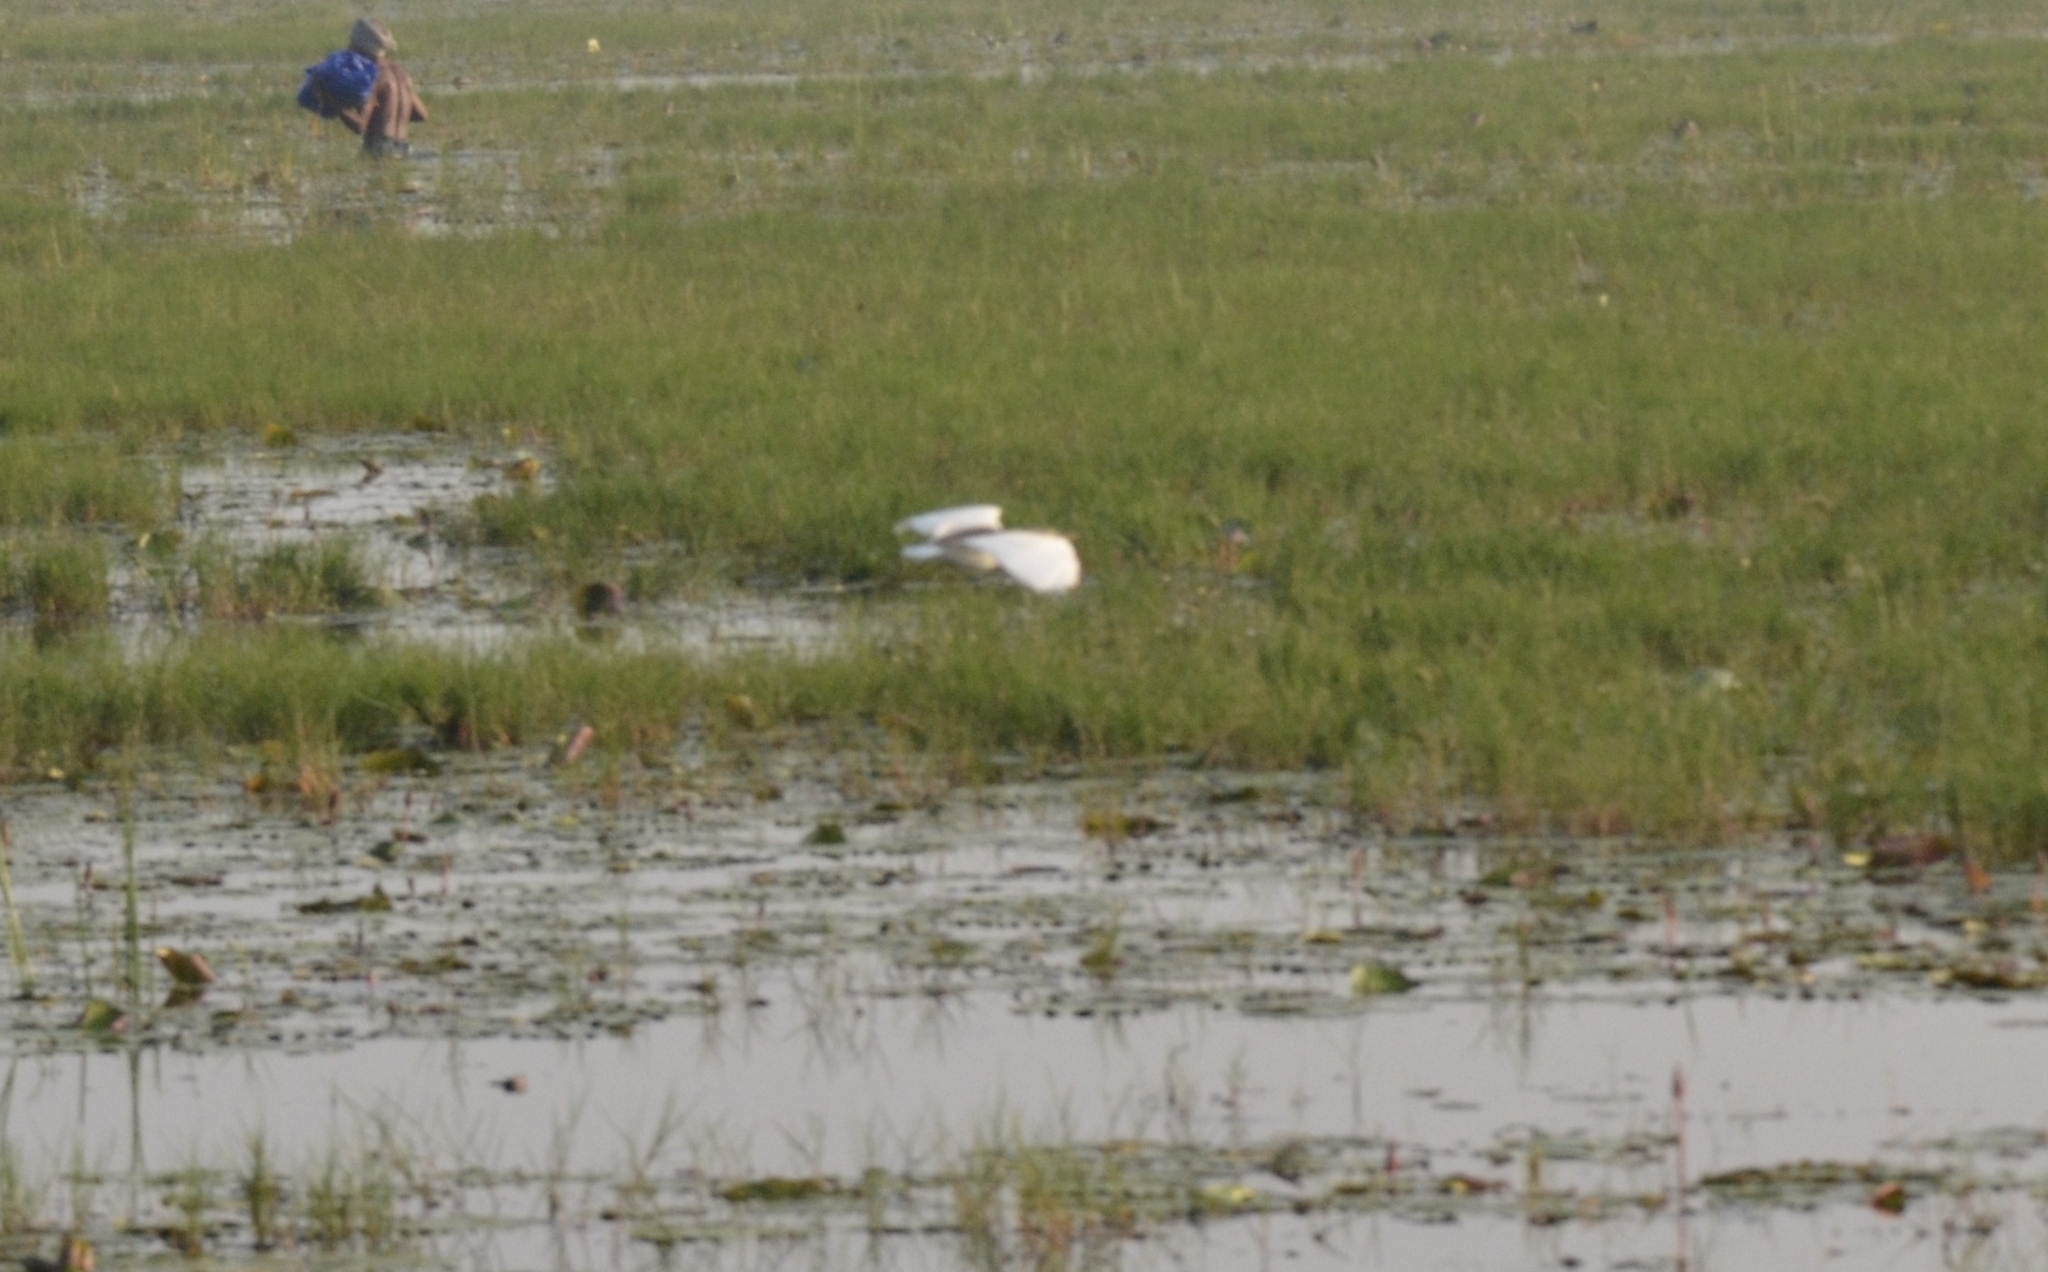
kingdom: Animalia
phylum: Chordata
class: Aves
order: Pelecaniformes
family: Ardeidae
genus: Ardeola
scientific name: Ardeola grayii
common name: Indian pond heron
